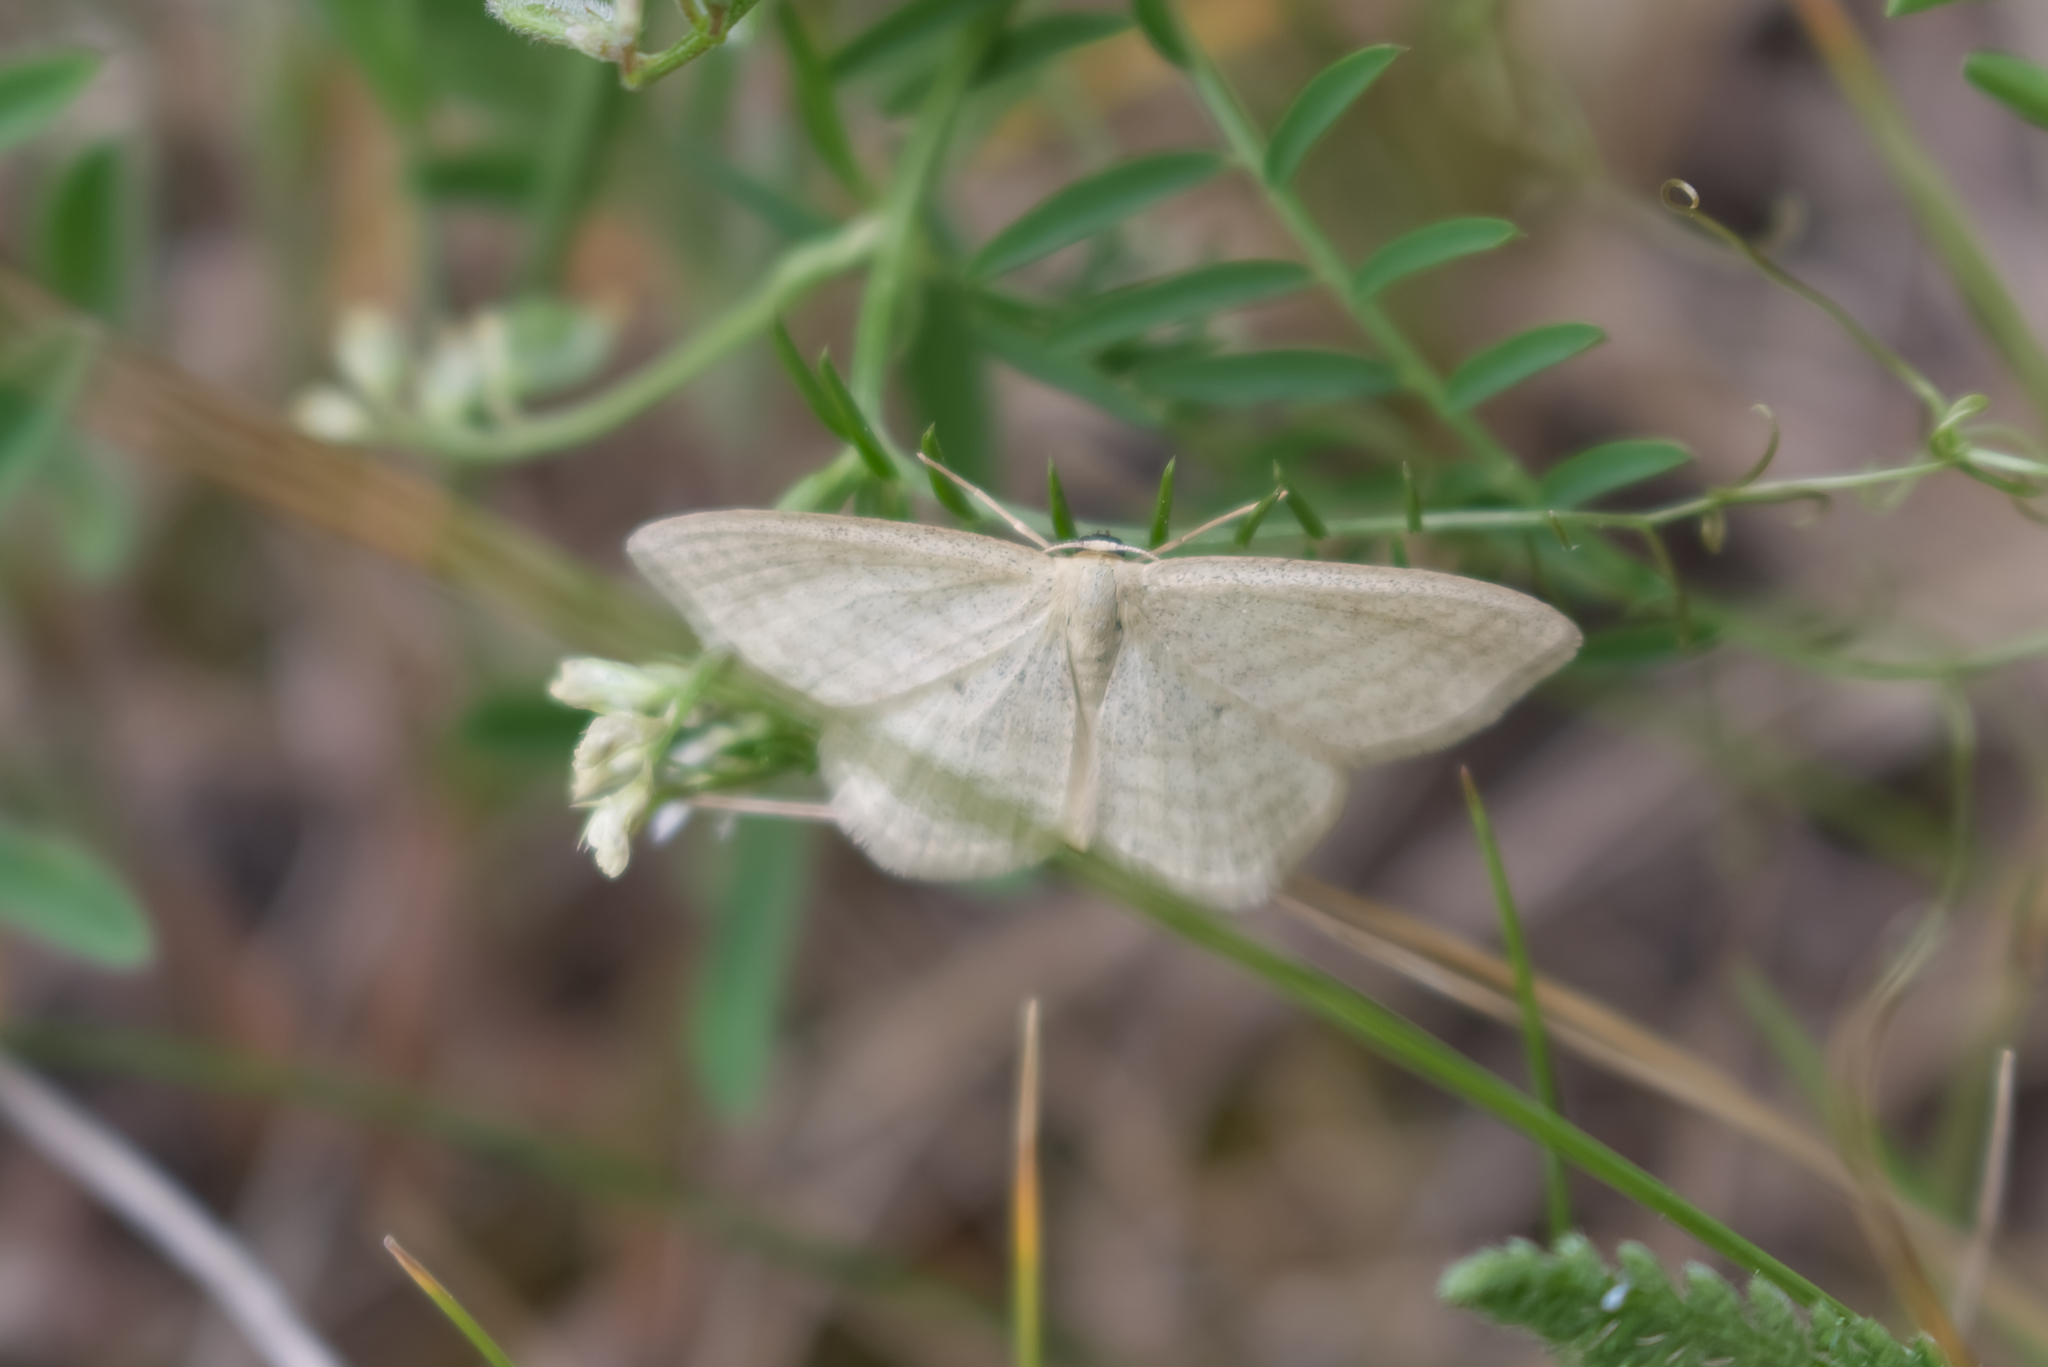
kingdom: Animalia
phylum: Arthropoda
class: Insecta
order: Lepidoptera
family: Geometridae
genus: Scopula
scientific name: Scopula virgulata
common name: Streaked wave
